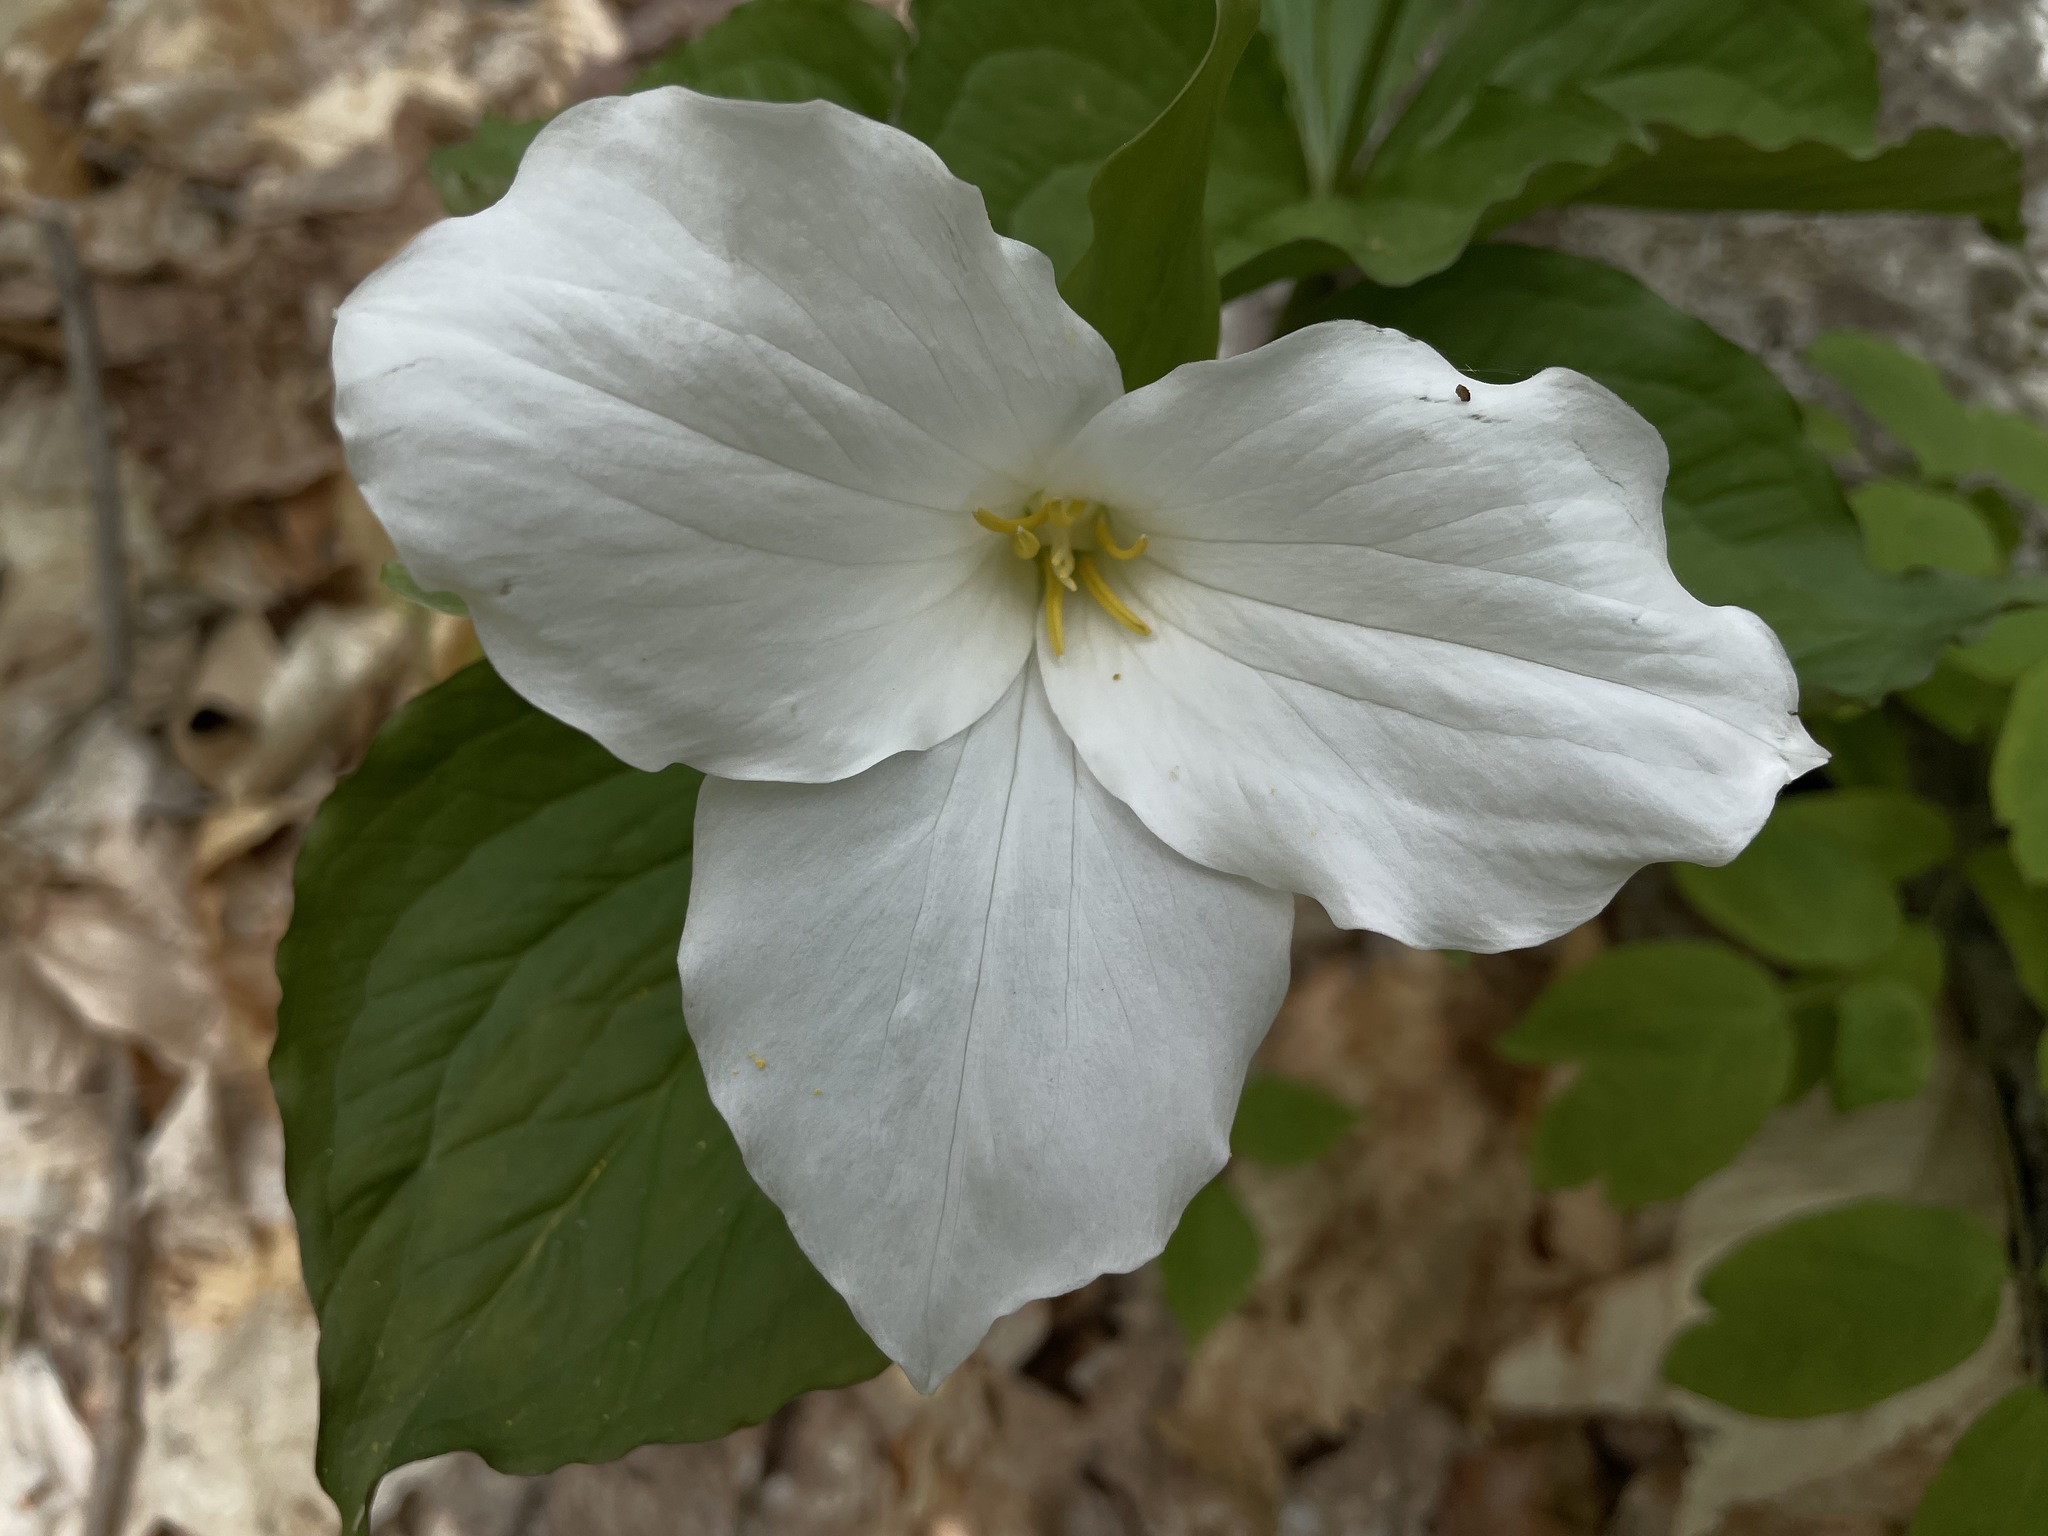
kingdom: Plantae
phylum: Tracheophyta
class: Liliopsida
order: Liliales
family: Melanthiaceae
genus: Trillium
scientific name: Trillium grandiflorum
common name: Great white trillium
